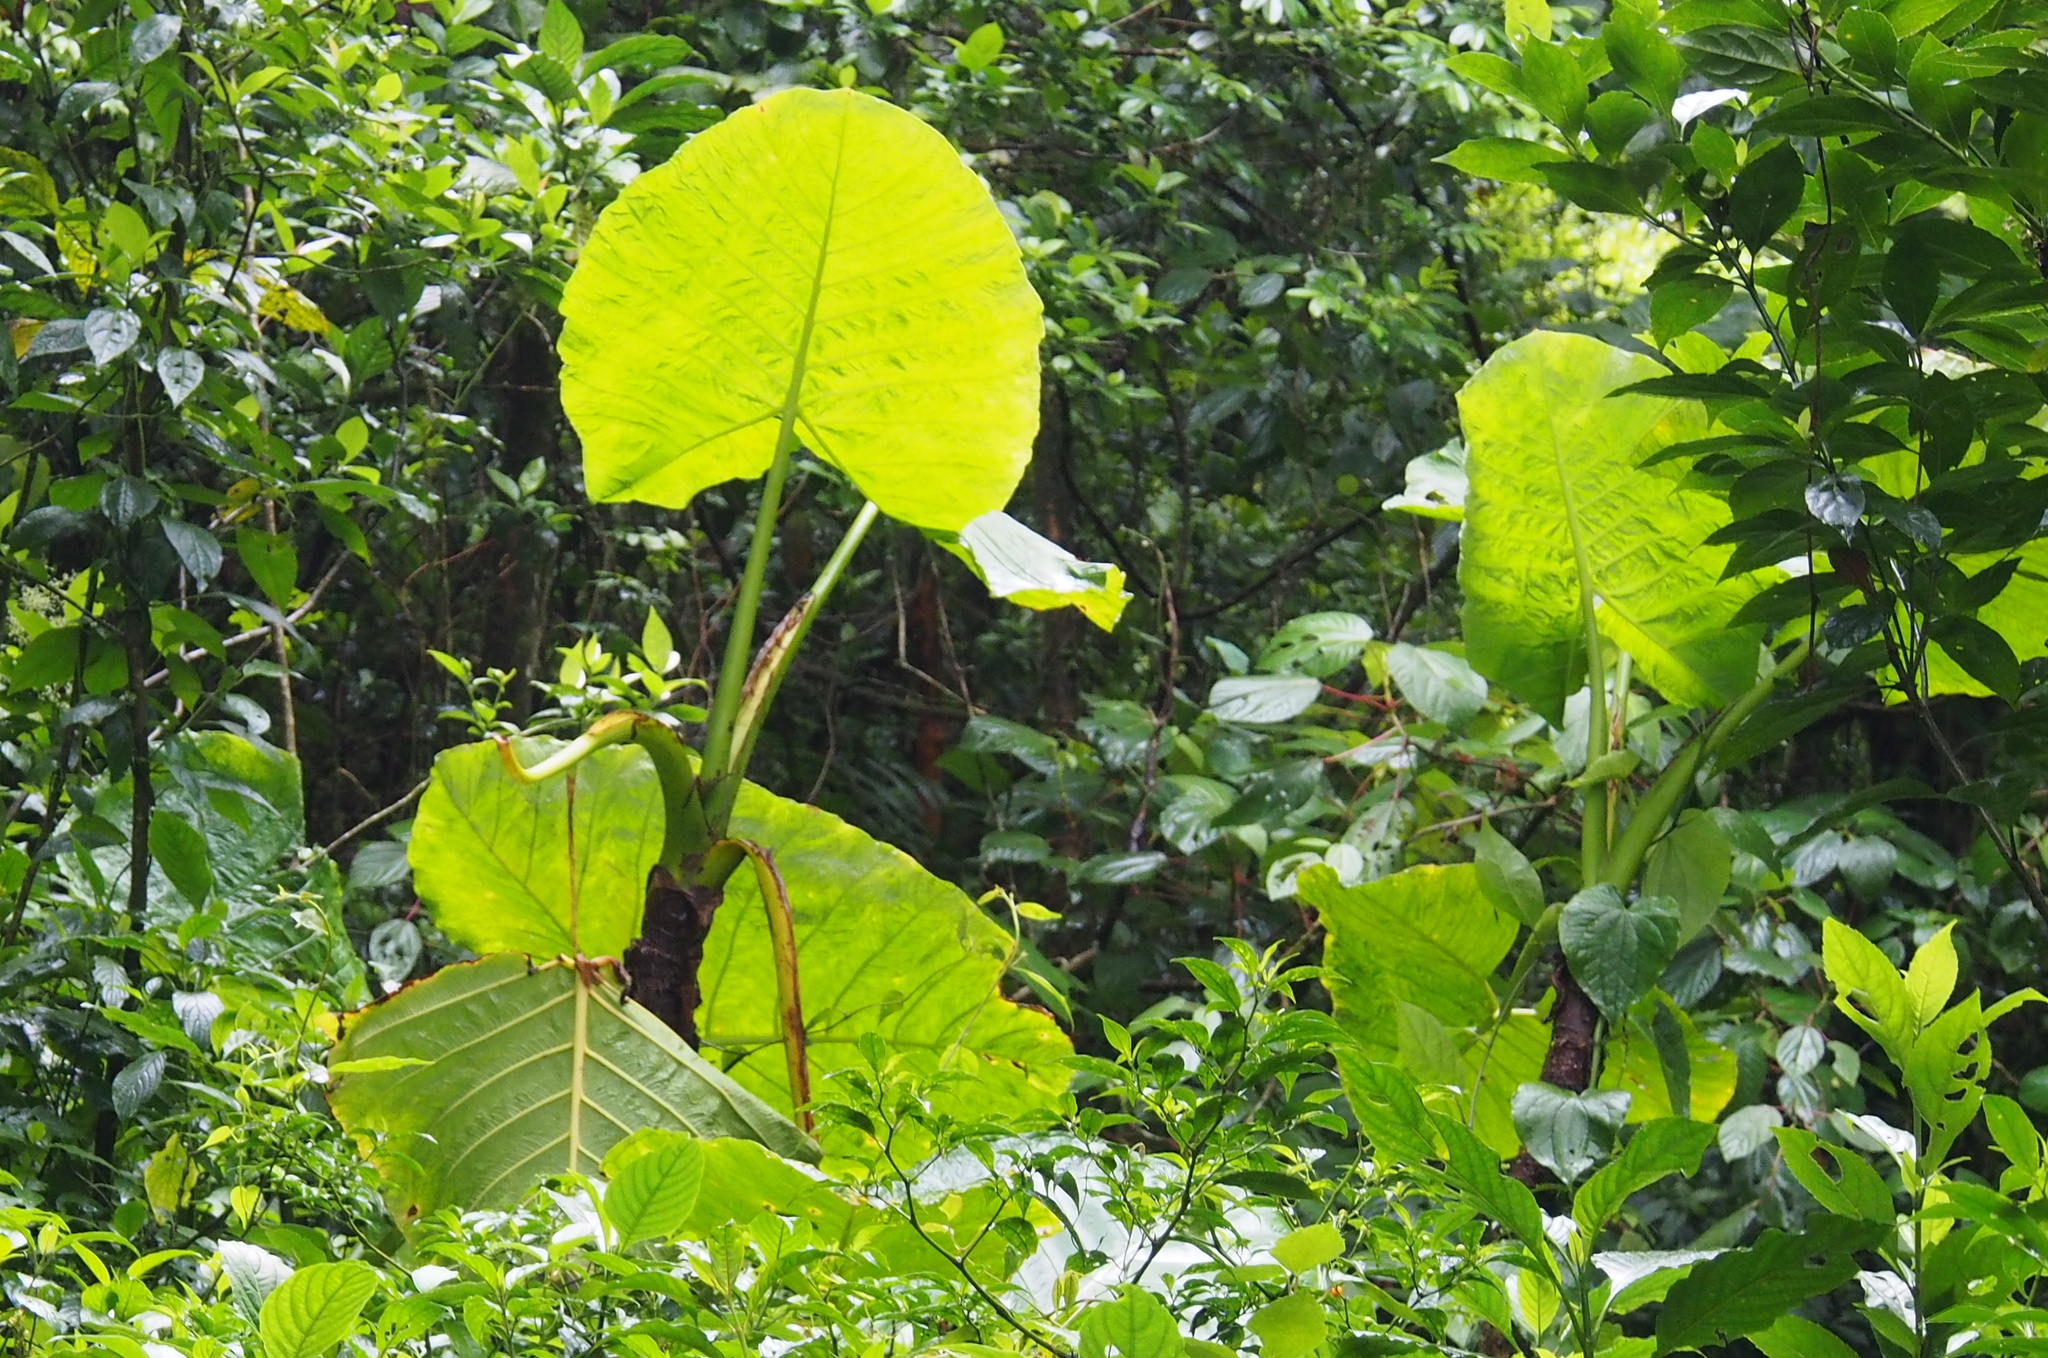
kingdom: Plantae
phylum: Tracheophyta
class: Liliopsida
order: Alismatales
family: Araceae
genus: Xanthosoma
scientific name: Xanthosoma undipes
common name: Tall elephant's ear
